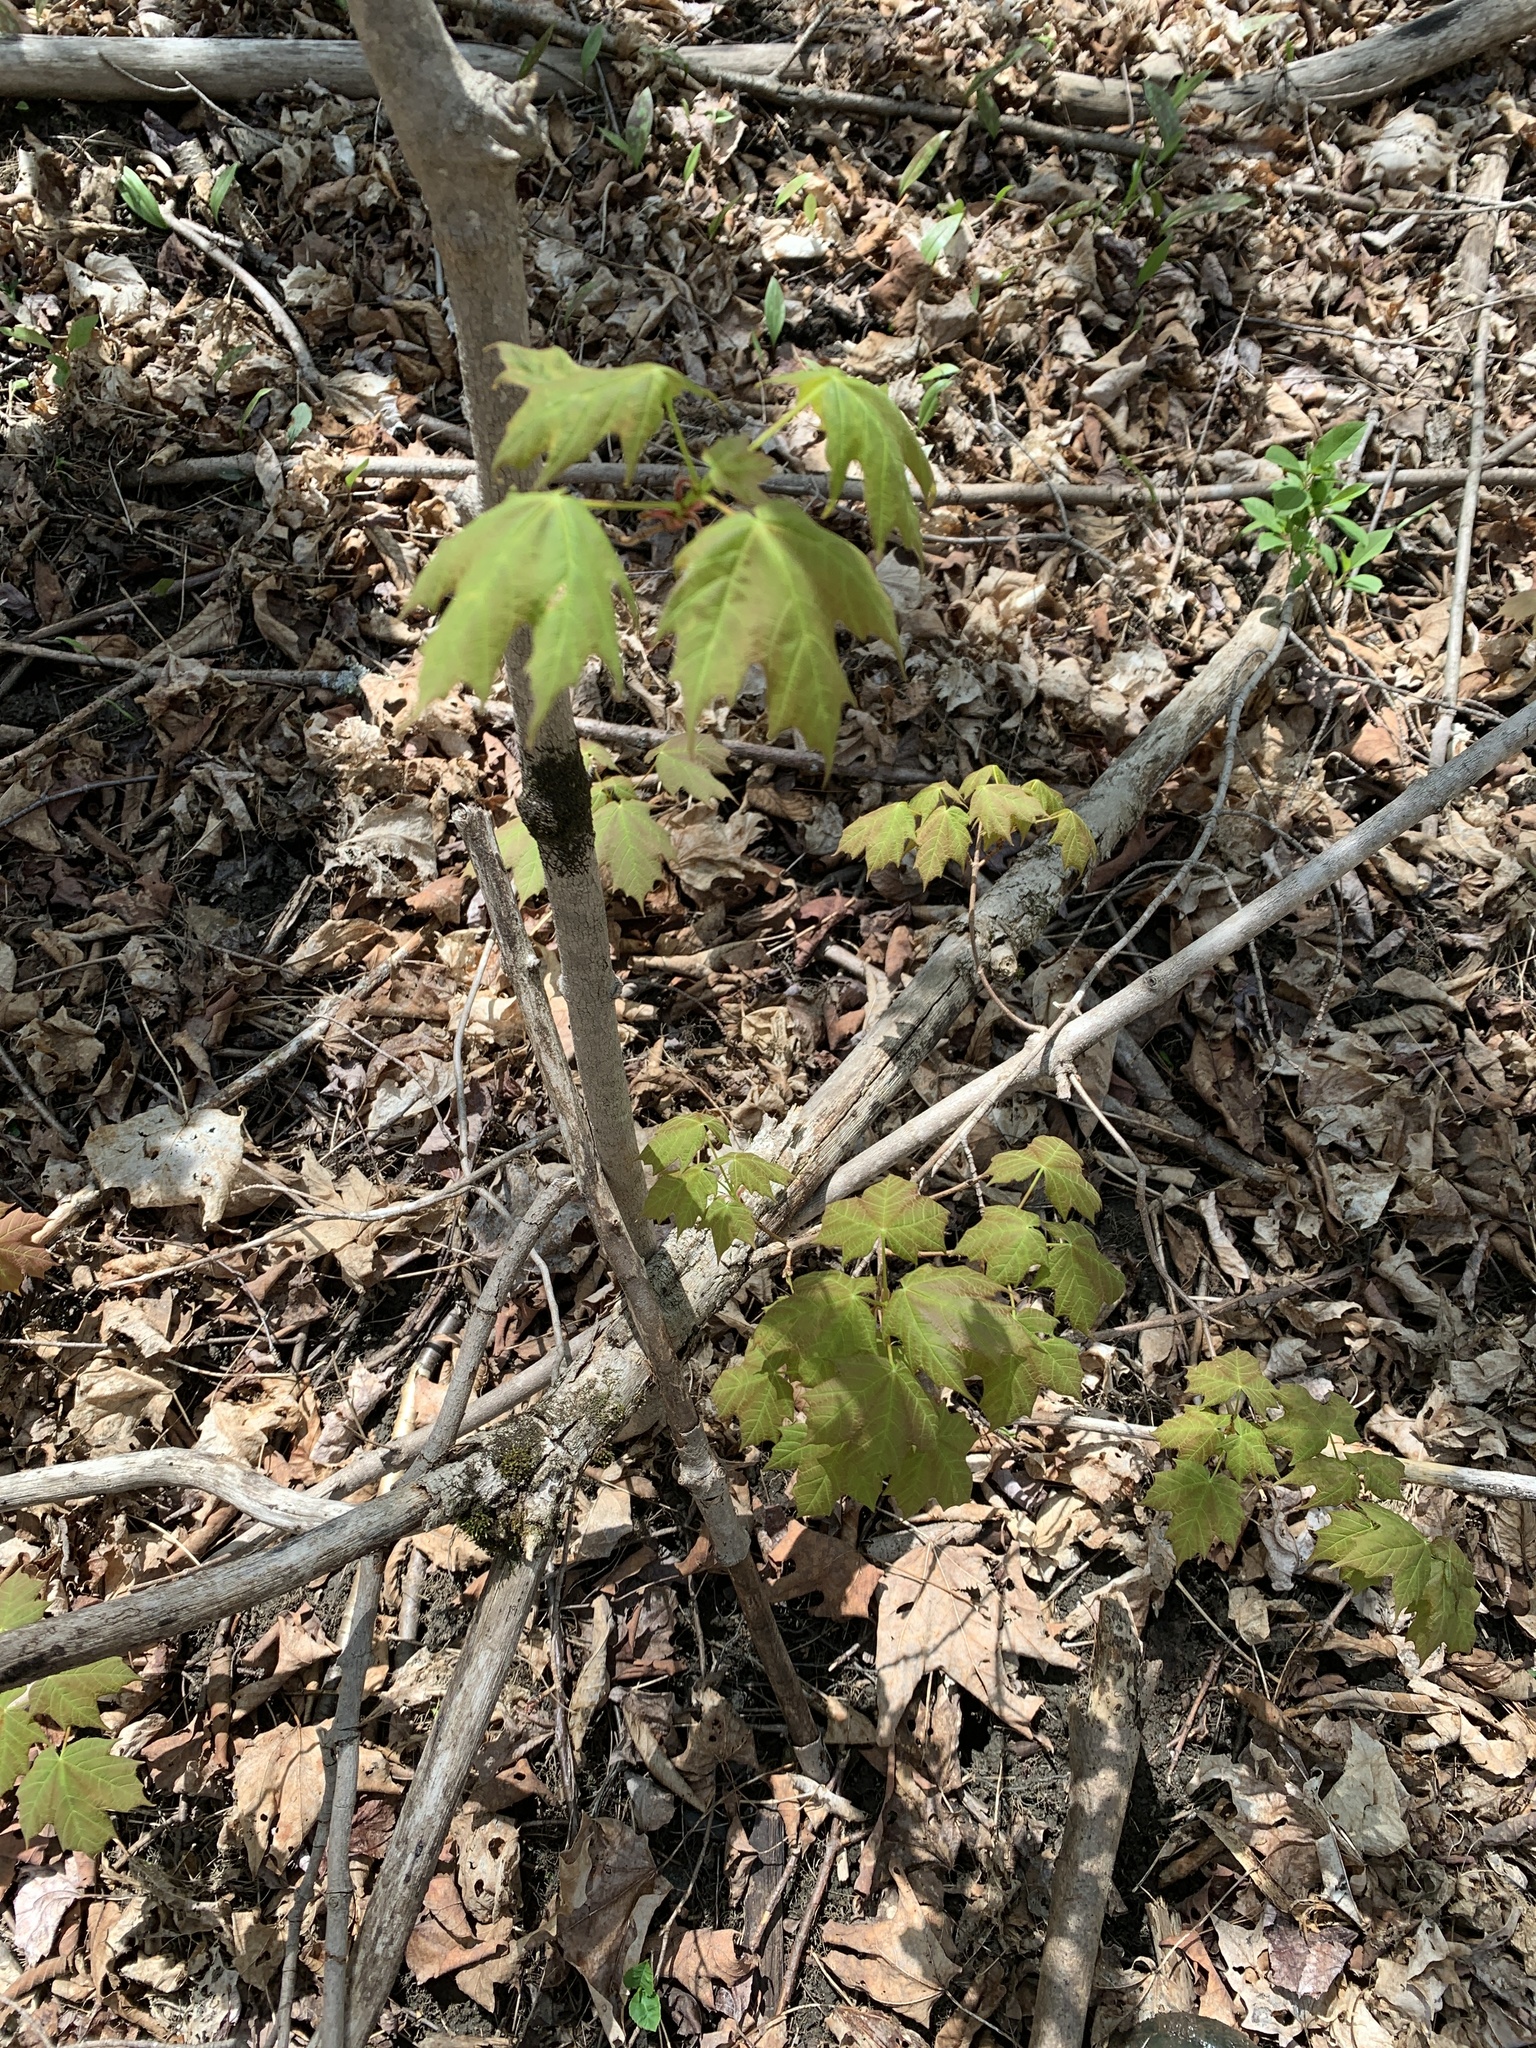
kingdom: Plantae
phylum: Tracheophyta
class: Magnoliopsida
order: Sapindales
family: Sapindaceae
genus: Acer
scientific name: Acer saccharum
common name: Sugar maple
